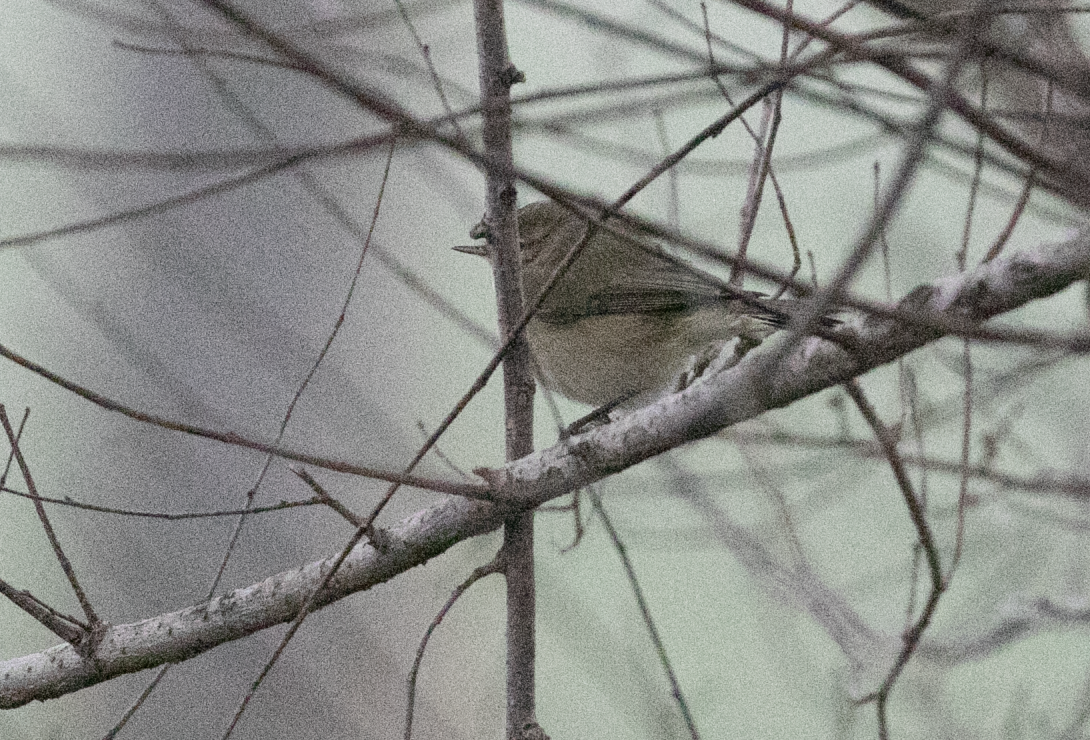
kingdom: Animalia
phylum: Chordata
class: Aves
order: Passeriformes
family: Phylloscopidae
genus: Phylloscopus
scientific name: Phylloscopus collybita
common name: Common chiffchaff
